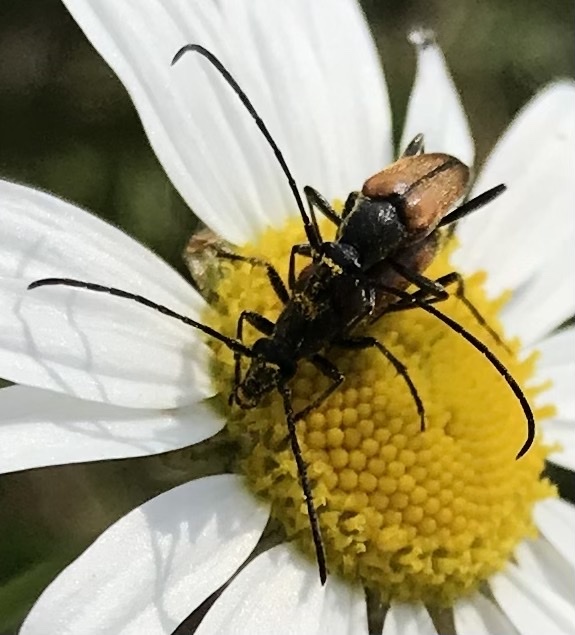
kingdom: Animalia
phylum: Arthropoda
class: Insecta
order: Coleoptera
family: Cerambycidae
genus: Stenurella
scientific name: Stenurella melanura
